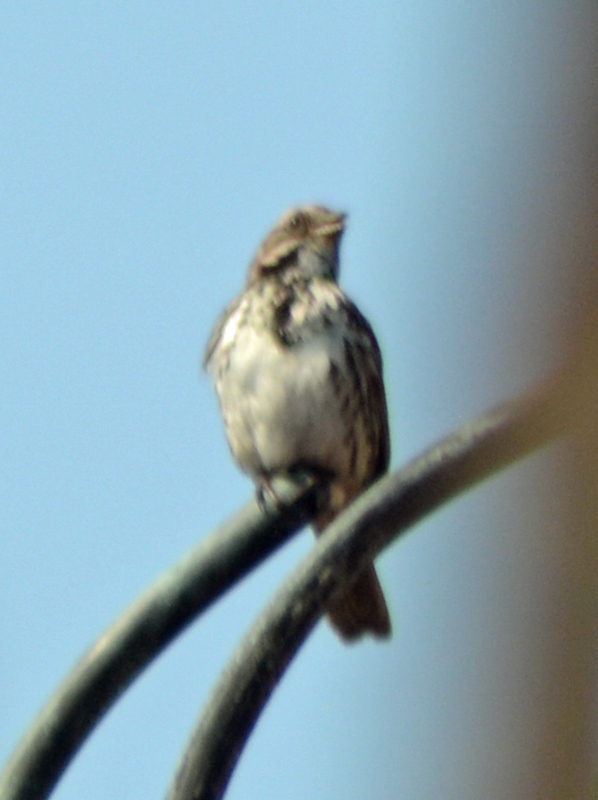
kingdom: Animalia
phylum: Chordata
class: Aves
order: Passeriformes
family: Passerellidae
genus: Melospiza
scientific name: Melospiza melodia
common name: Song sparrow
